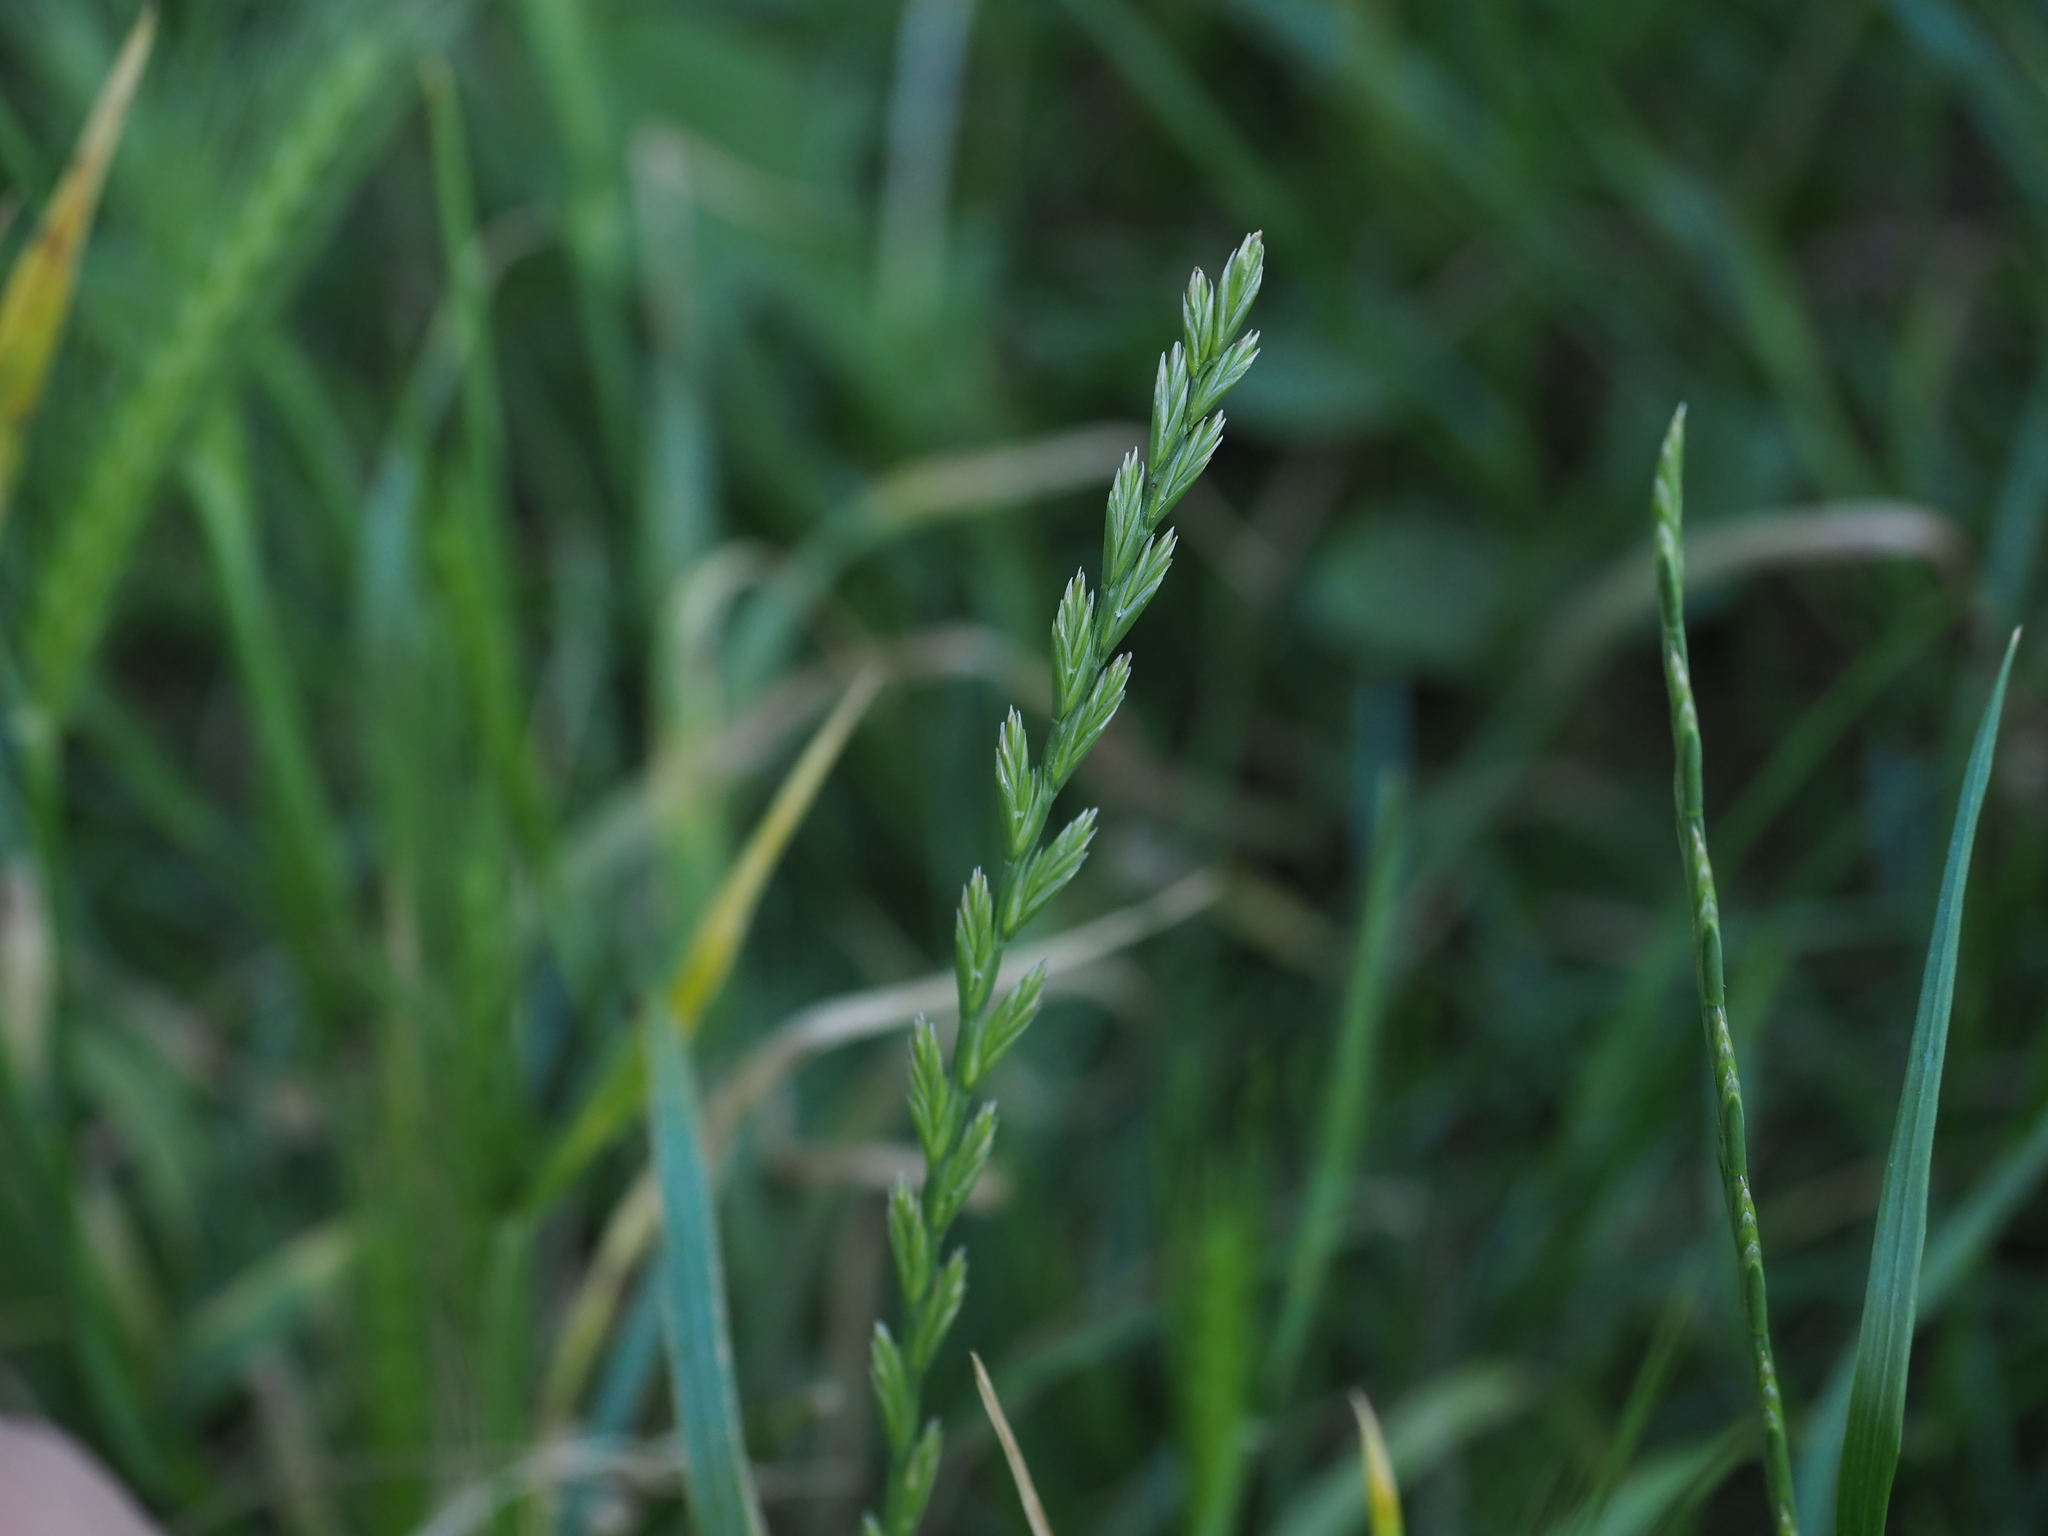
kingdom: Plantae
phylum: Tracheophyta
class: Liliopsida
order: Poales
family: Poaceae
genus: Lolium
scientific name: Lolium perenne
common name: Perennial ryegrass
